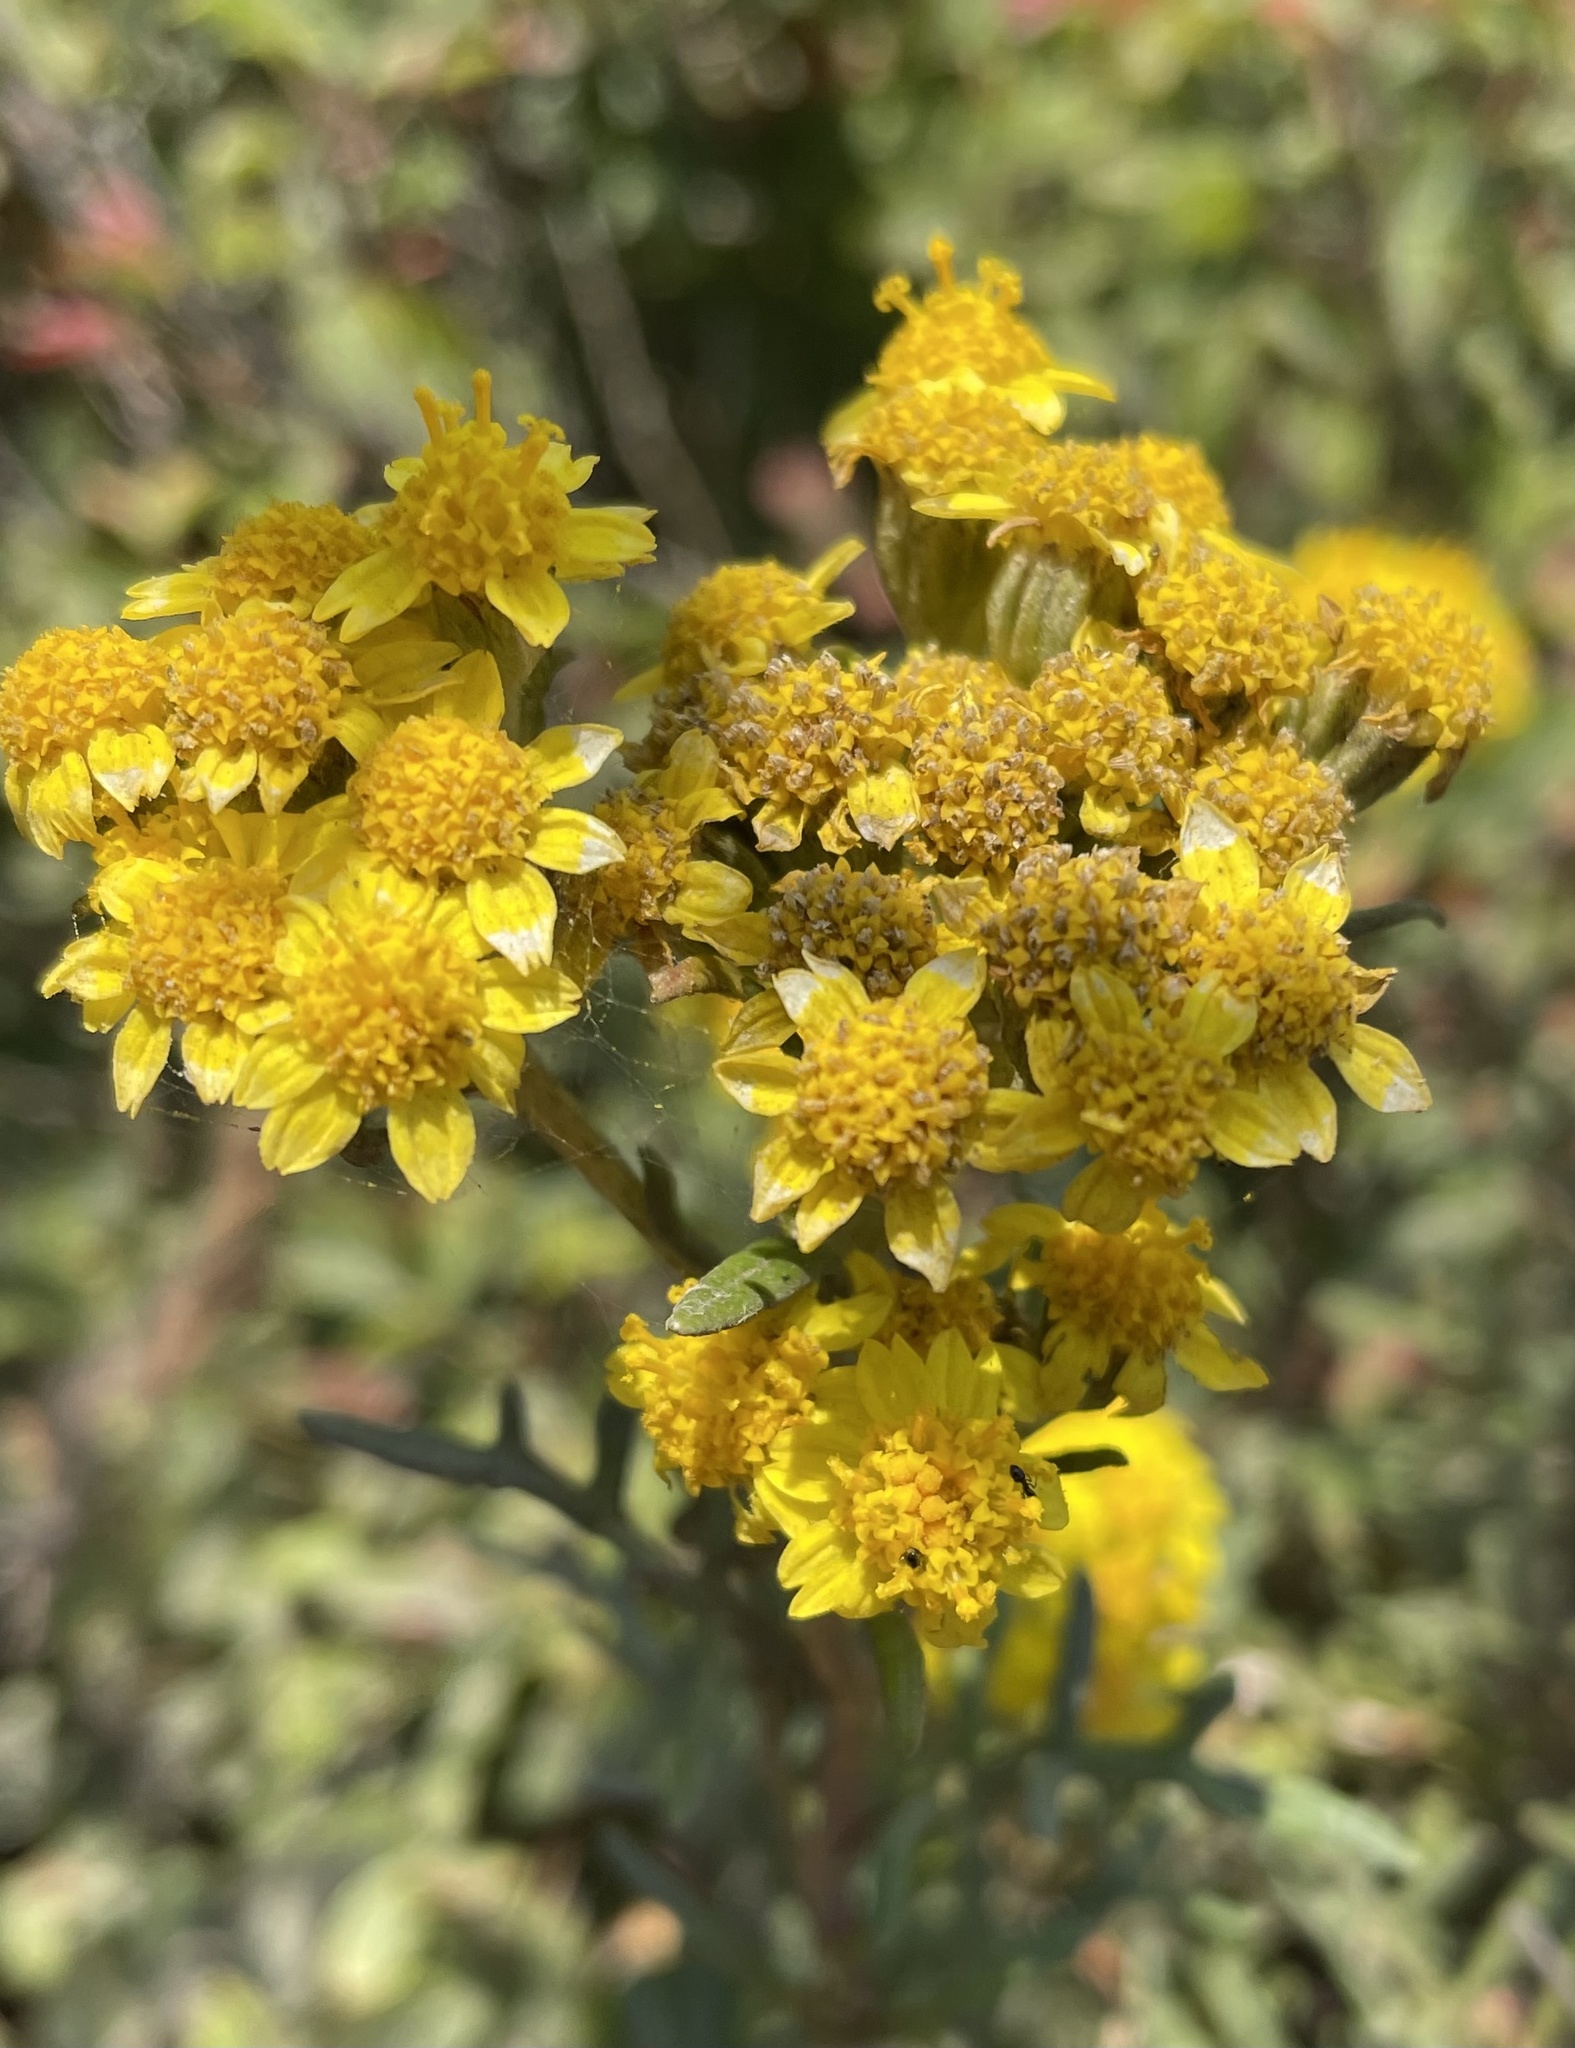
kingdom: Plantae
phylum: Tracheophyta
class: Magnoliopsida
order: Asterales
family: Asteraceae
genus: Eriophyllum
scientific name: Eriophyllum staechadifolium
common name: Lizardtail
